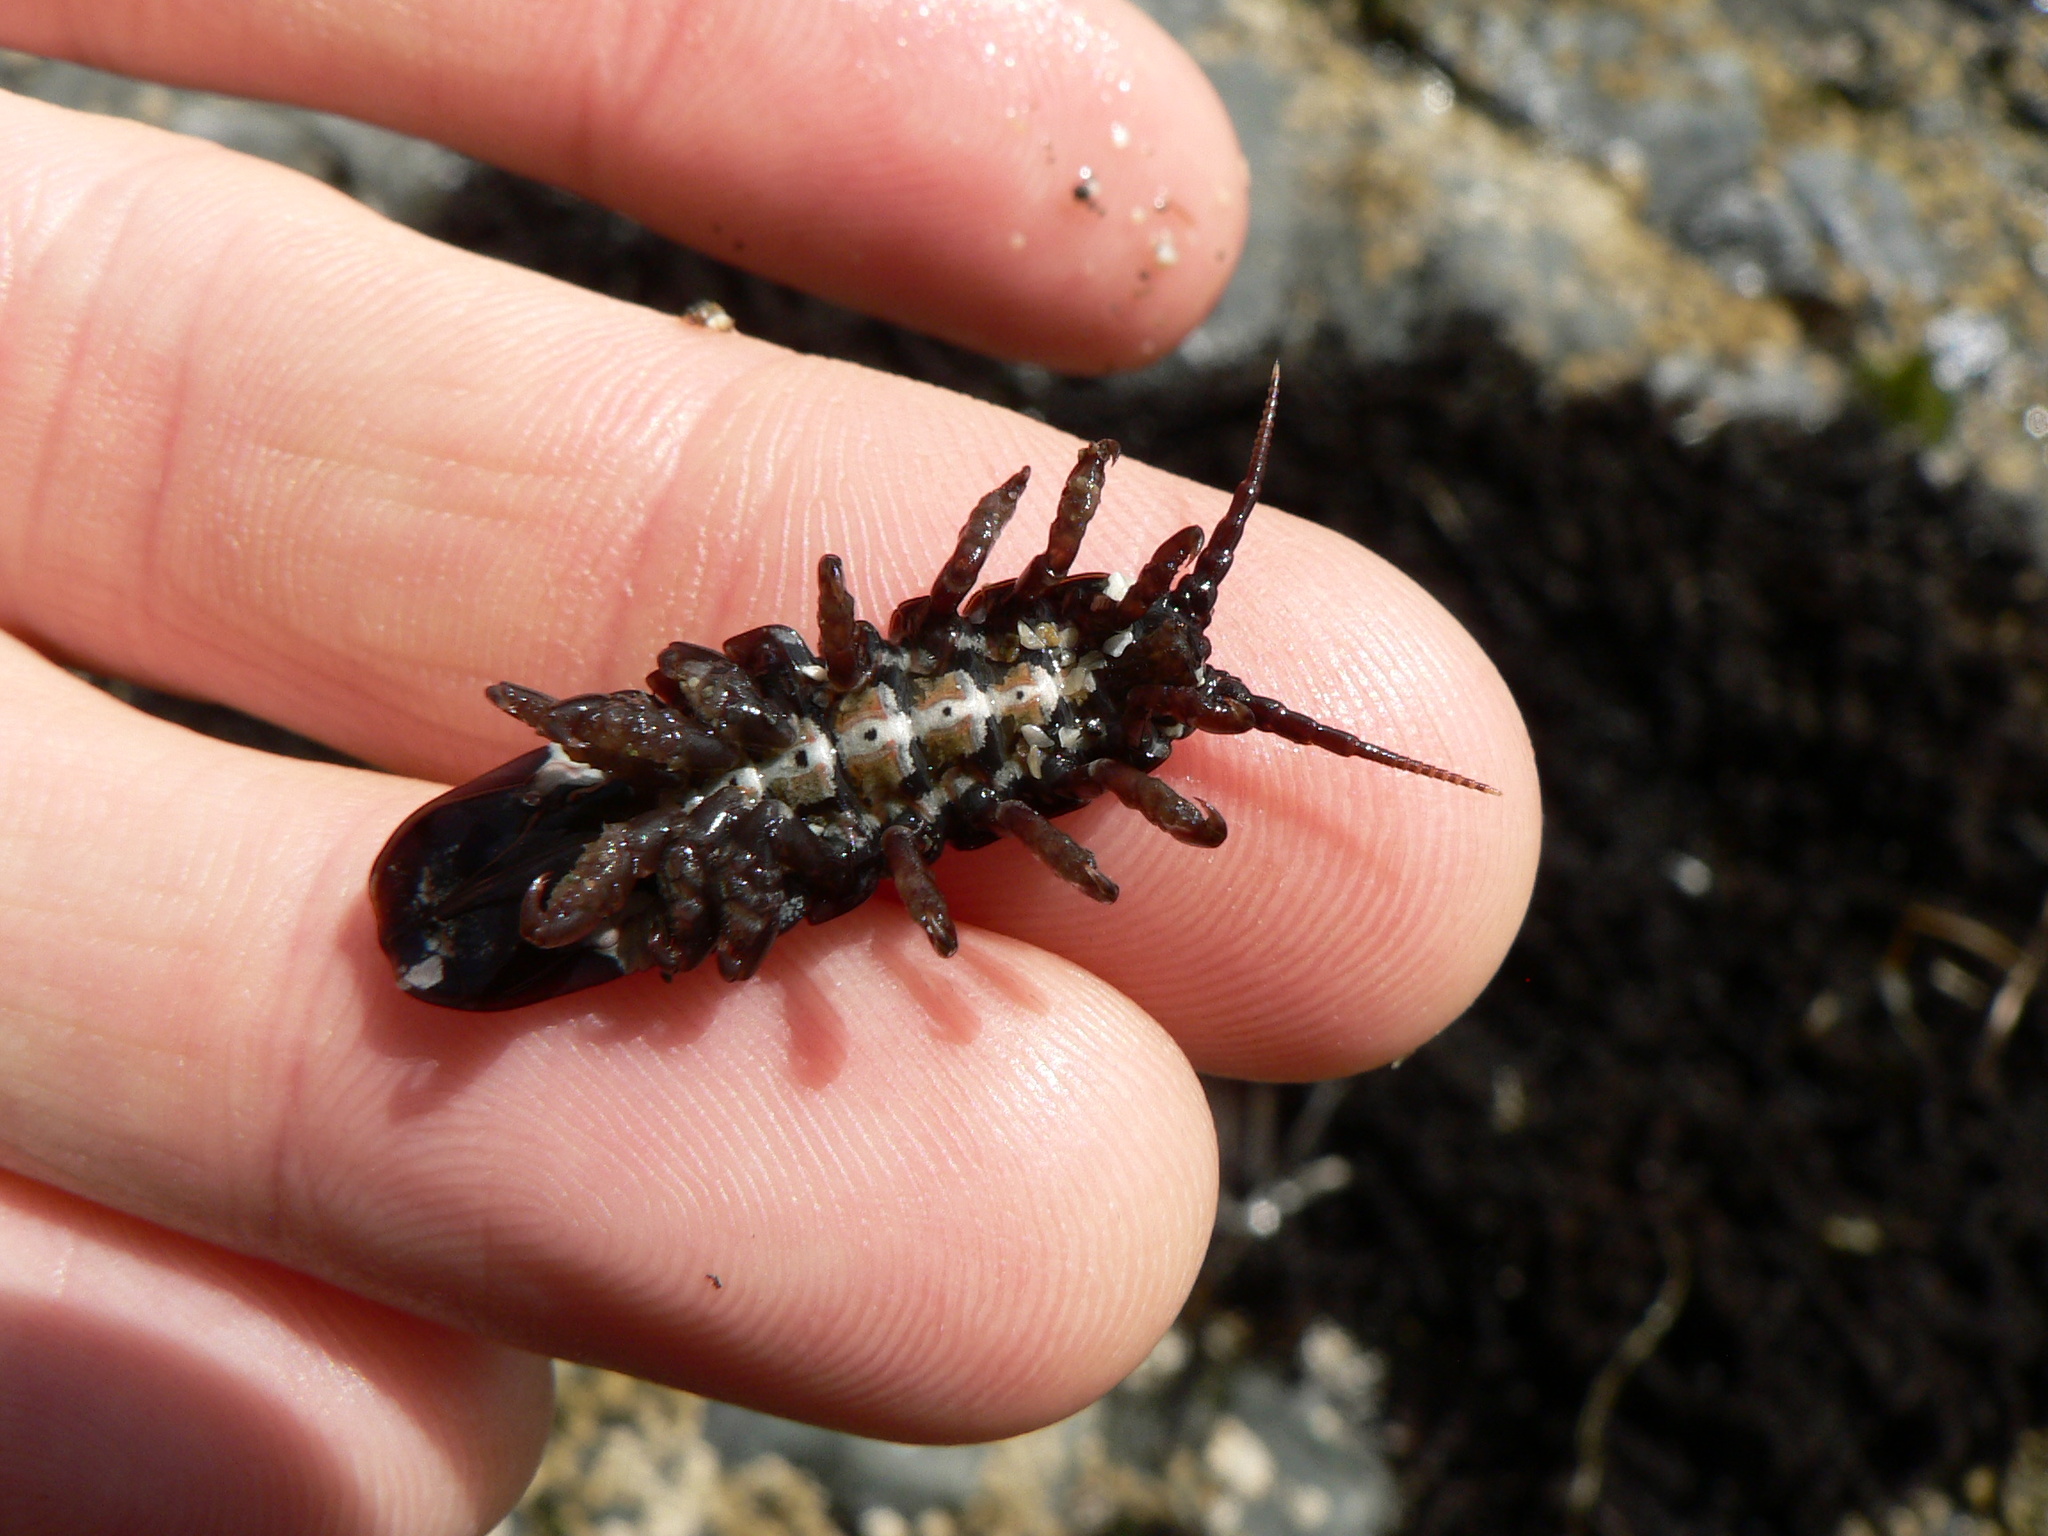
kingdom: Animalia
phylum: Arthropoda
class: Malacostraca
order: Isopoda
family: Idoteidae
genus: Pentidotea
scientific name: Pentidotea wosnesenskii
